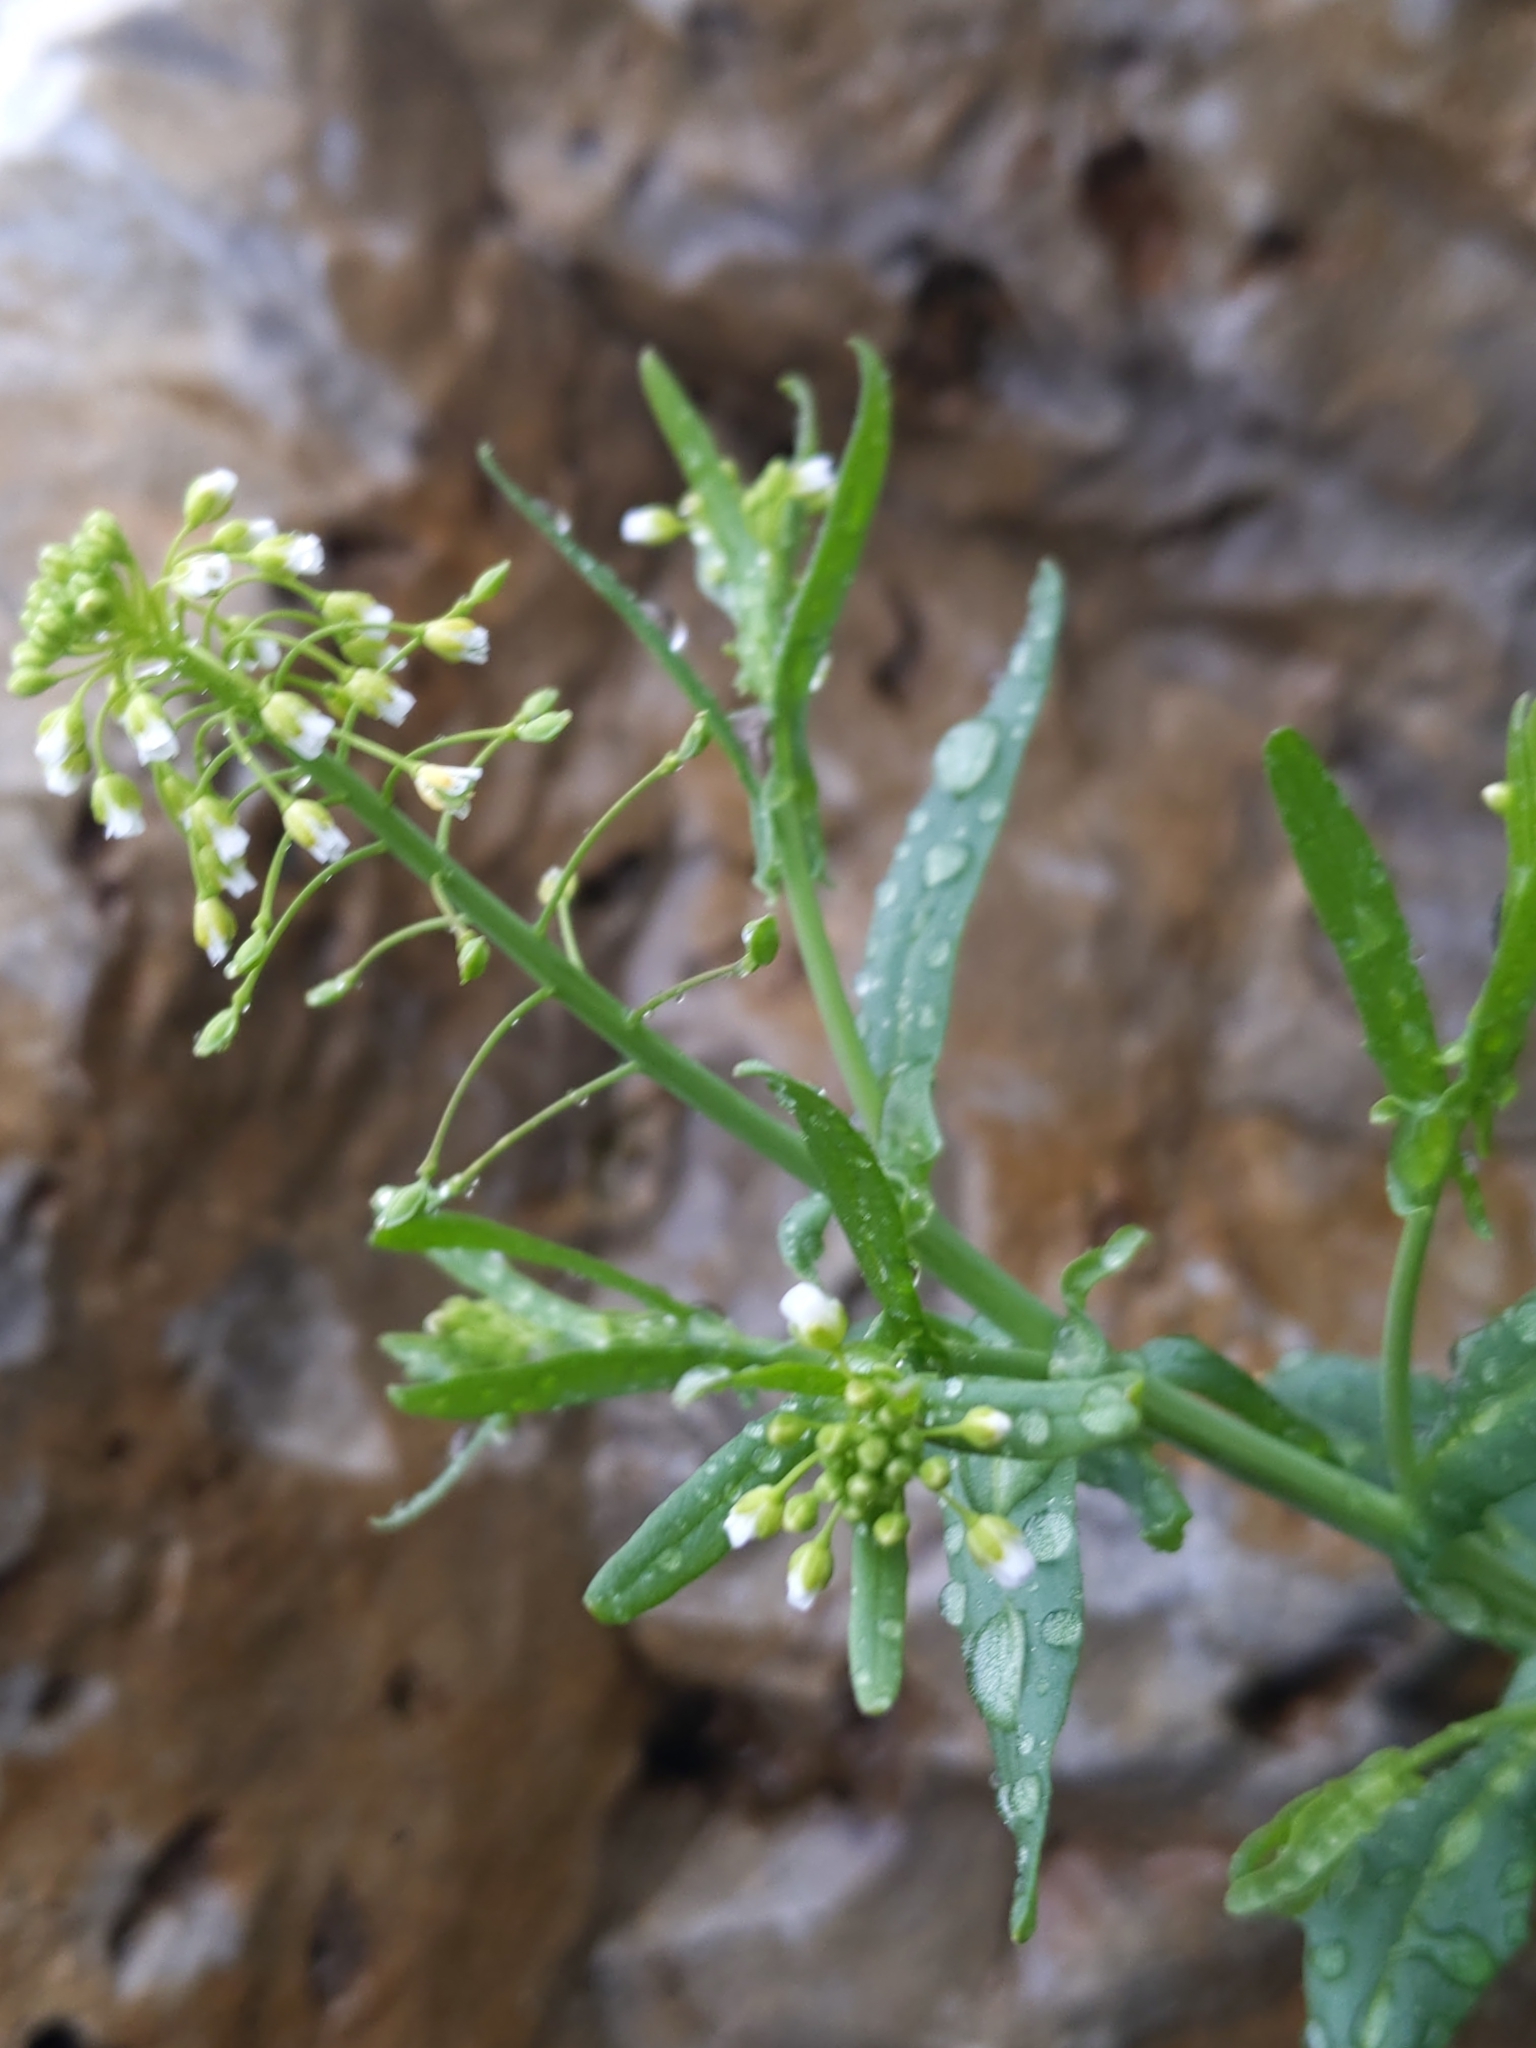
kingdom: Plantae
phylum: Tracheophyta
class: Magnoliopsida
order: Brassicales
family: Brassicaceae
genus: Mummenhoffia
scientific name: Mummenhoffia alliacea
